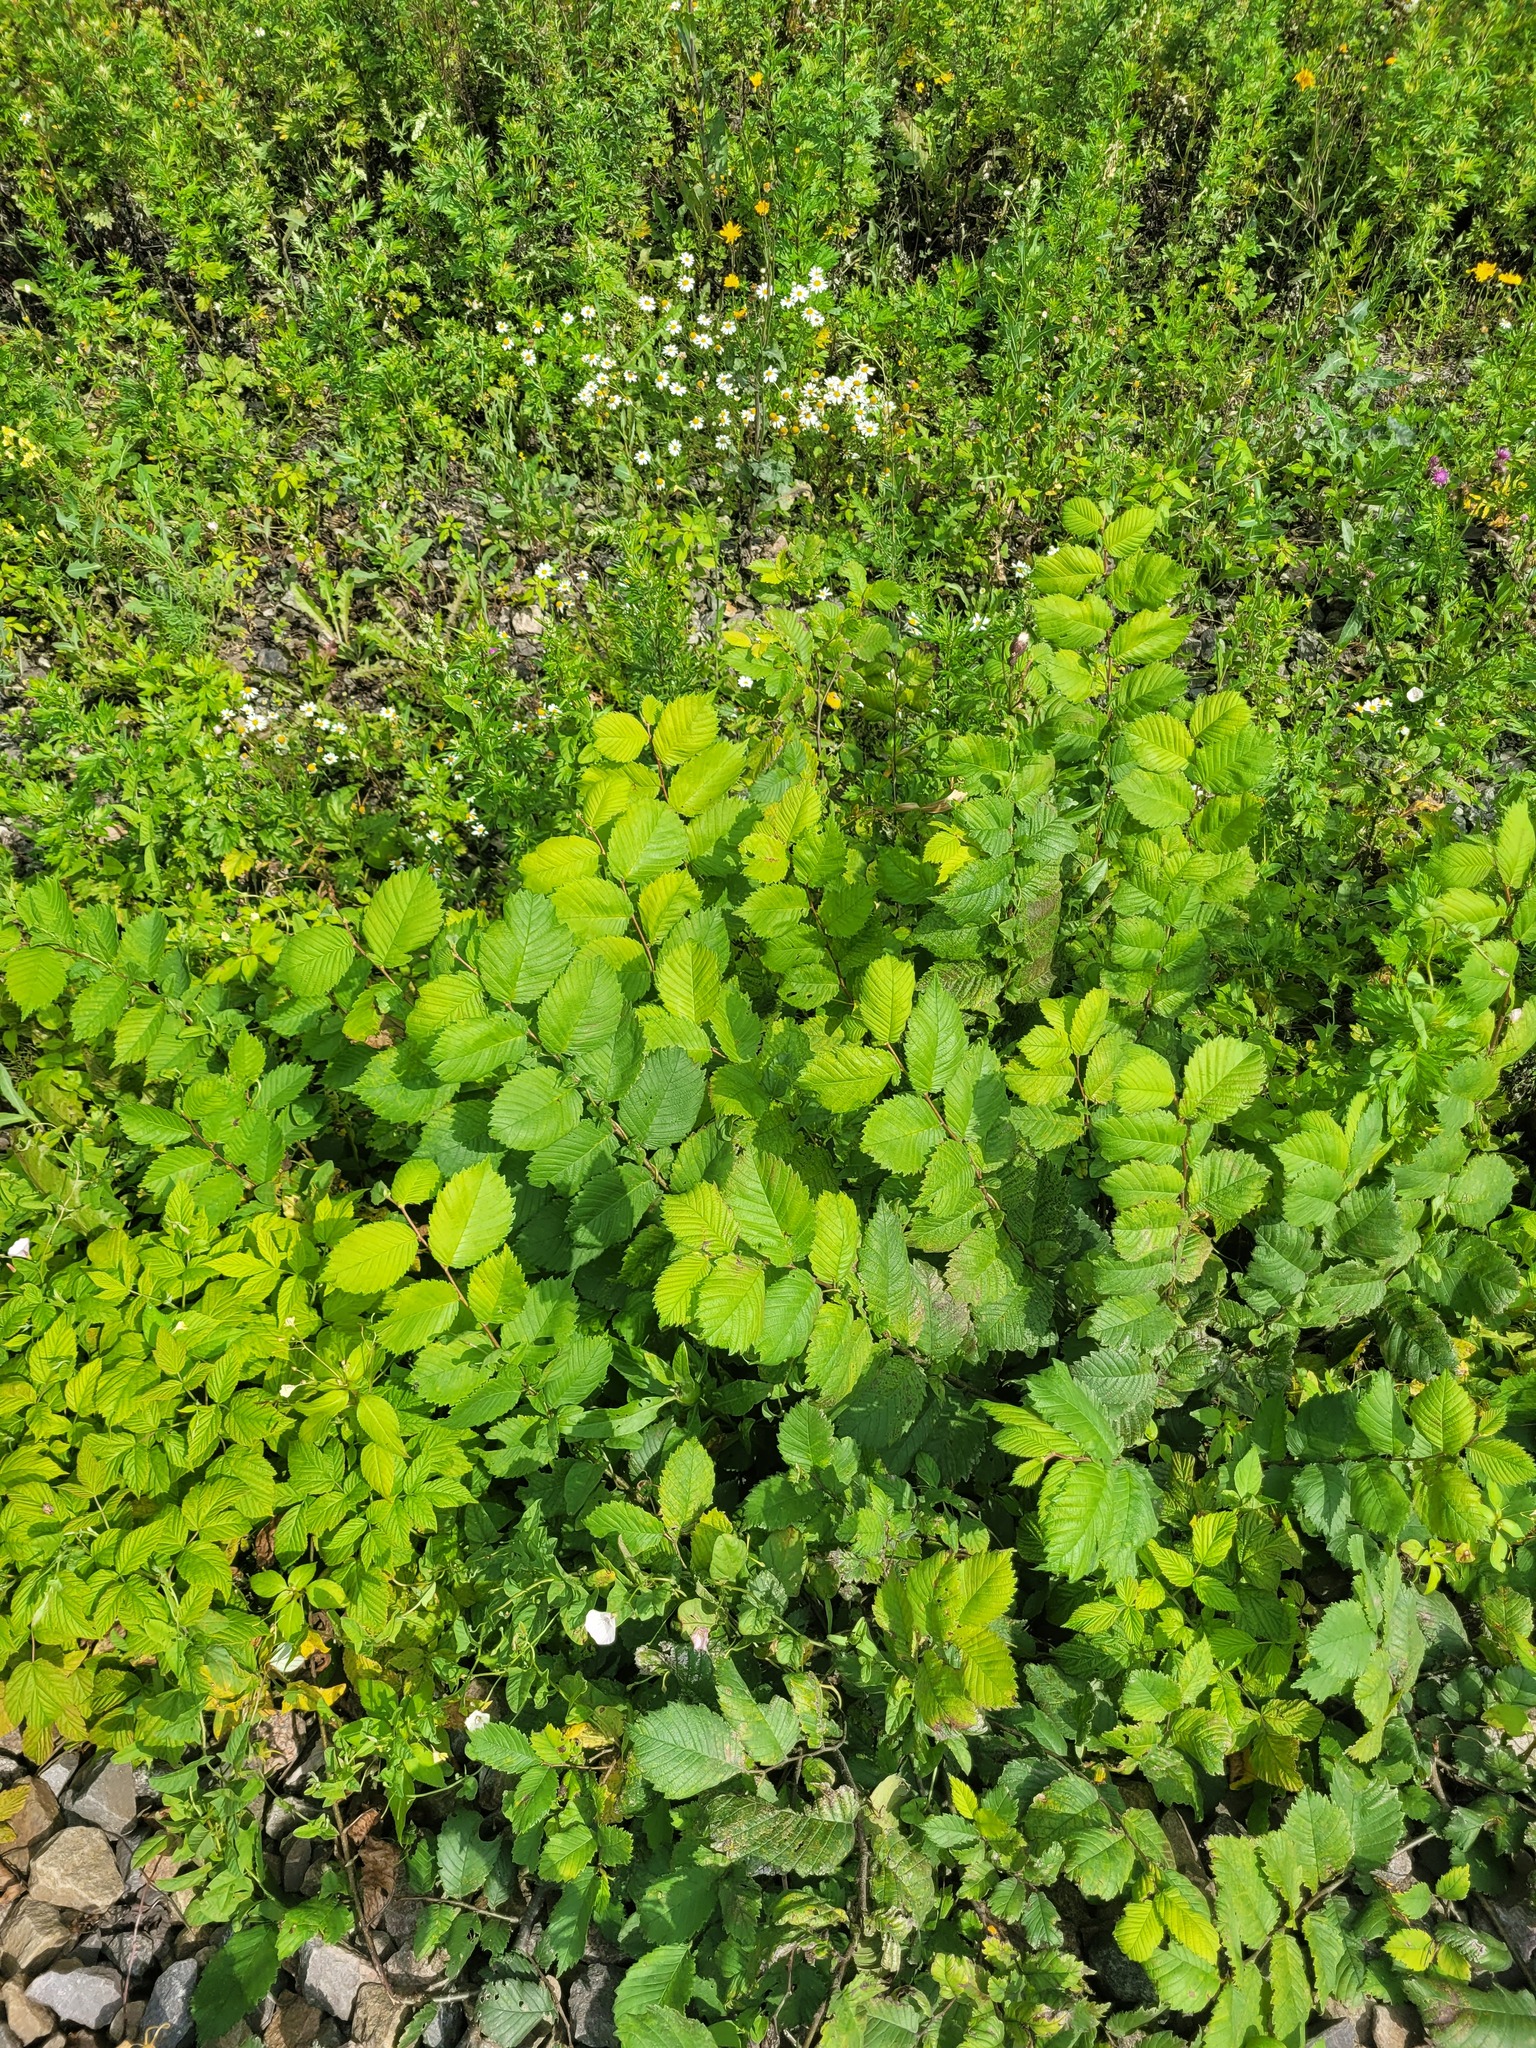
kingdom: Plantae
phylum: Tracheophyta
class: Magnoliopsida
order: Rosales
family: Ulmaceae
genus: Ulmus
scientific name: Ulmus laevis
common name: European white-elm
